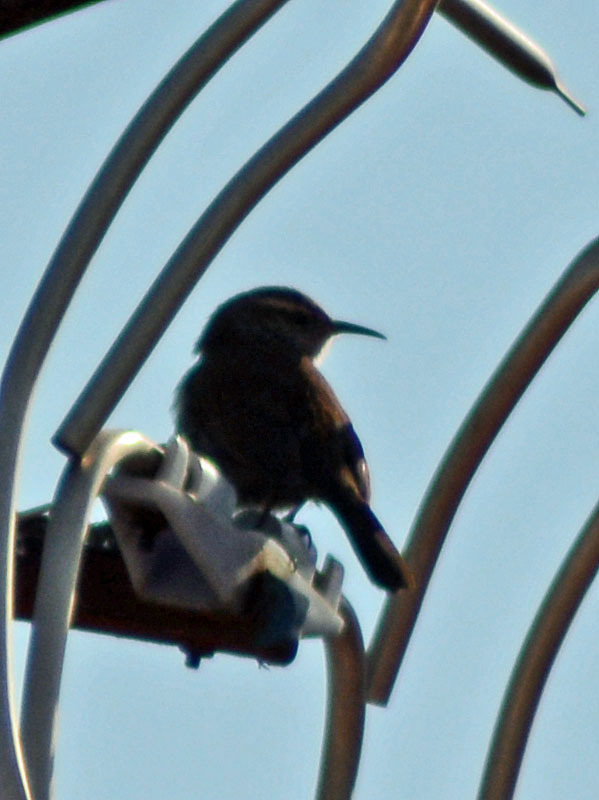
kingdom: Animalia
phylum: Chordata
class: Aves
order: Passeriformes
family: Troglodytidae
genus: Thryomanes
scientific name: Thryomanes bewickii
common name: Bewick's wren
